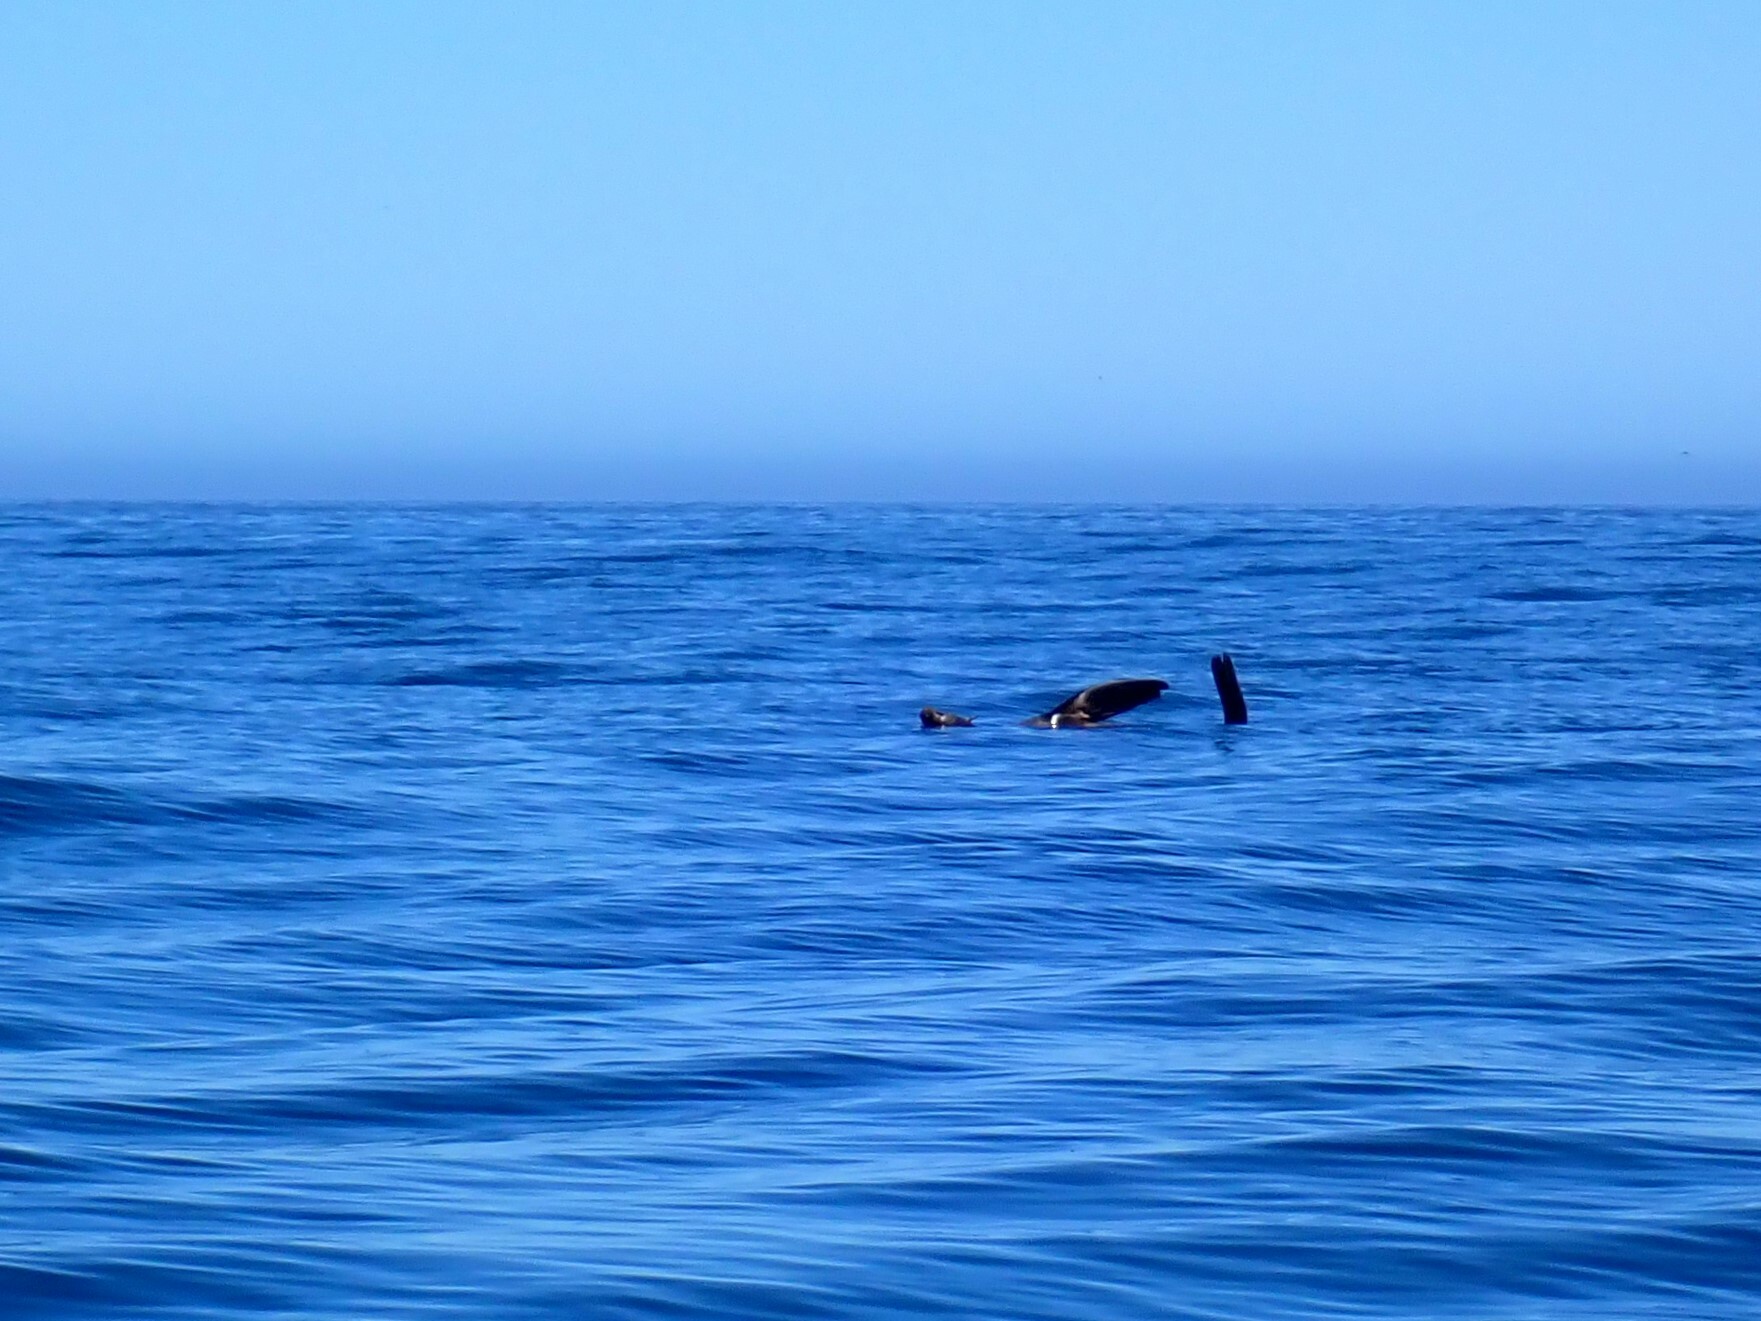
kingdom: Animalia
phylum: Chordata
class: Mammalia
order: Carnivora
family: Otariidae
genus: Arctocephalus
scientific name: Arctocephalus pusillus
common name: Brown fur seal
